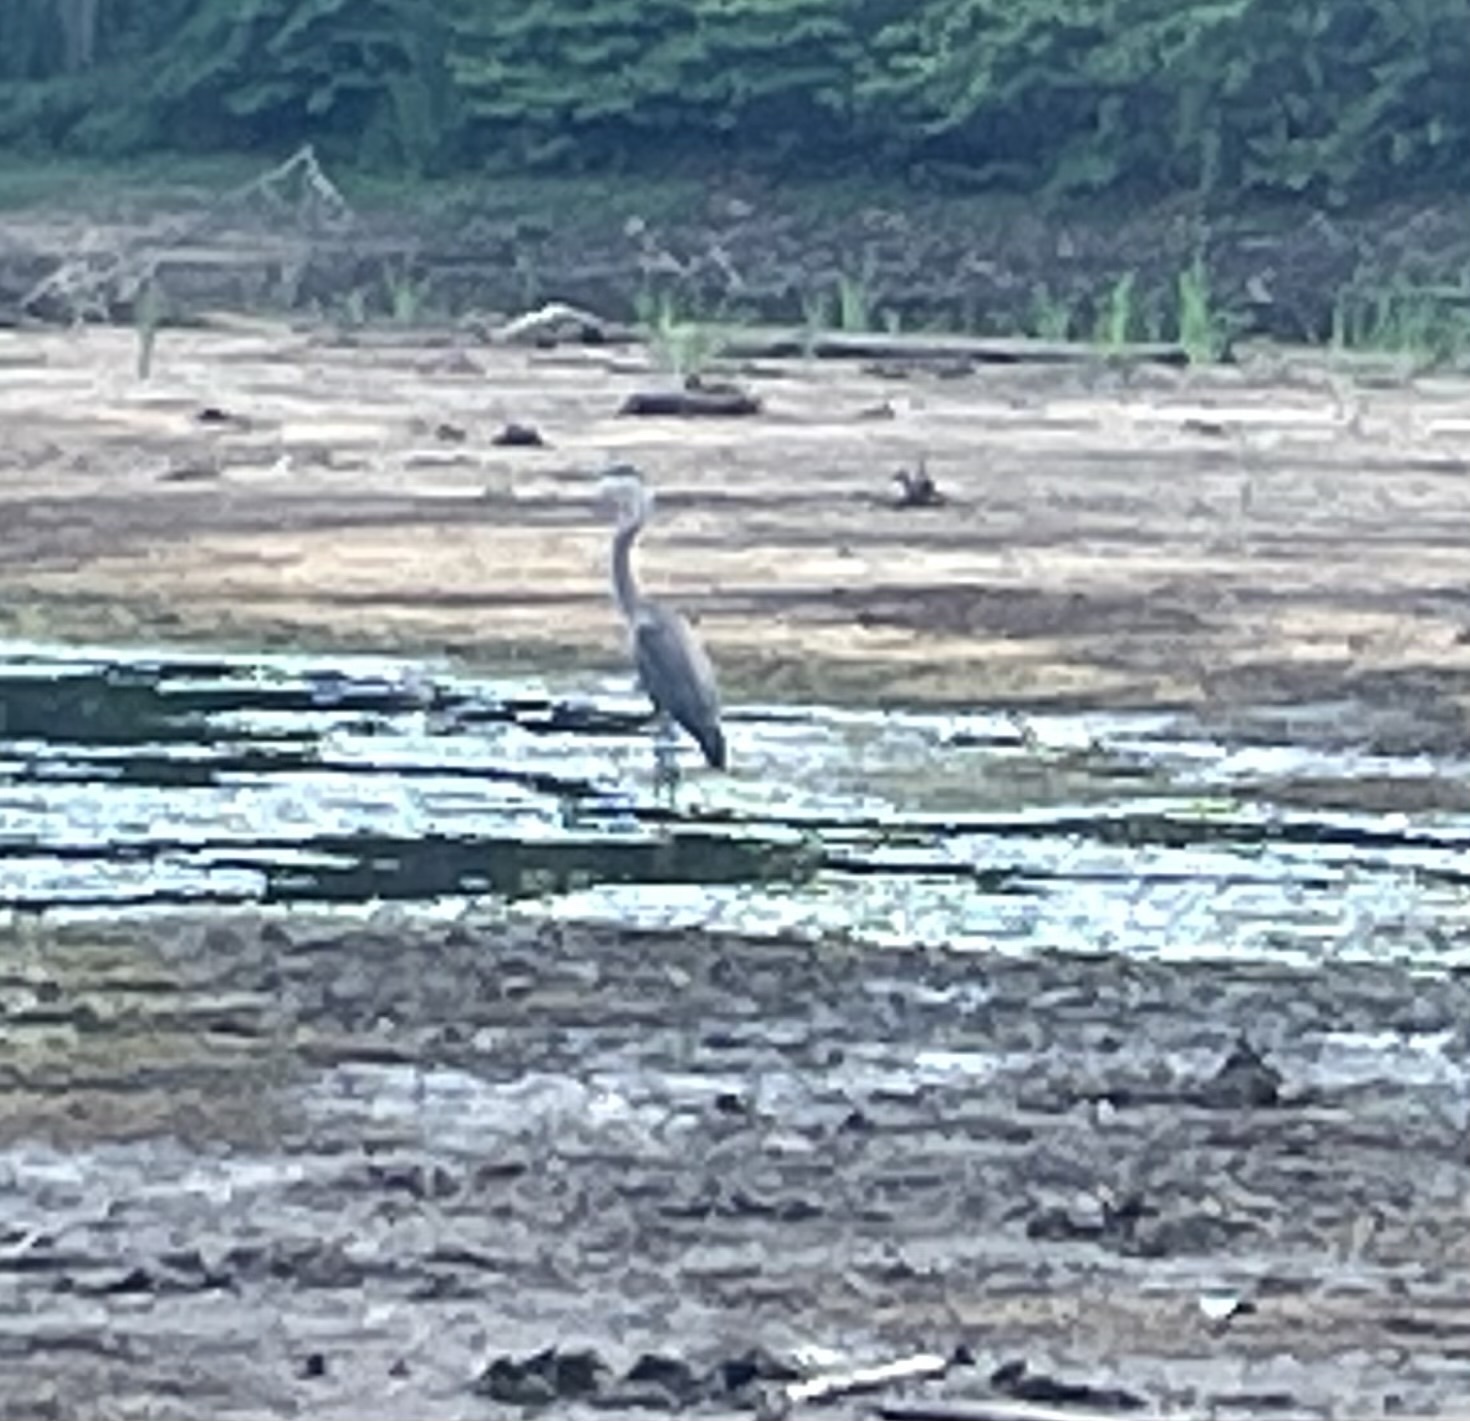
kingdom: Animalia
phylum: Chordata
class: Aves
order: Pelecaniformes
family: Ardeidae
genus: Ardea
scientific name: Ardea herodias
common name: Great blue heron
